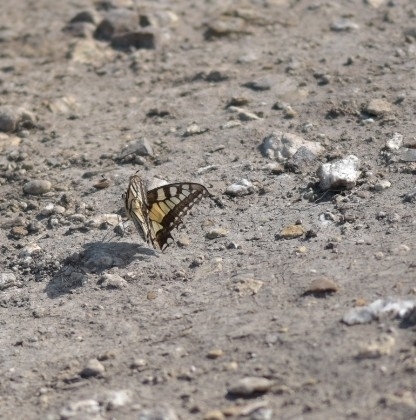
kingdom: Animalia
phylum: Arthropoda
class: Insecta
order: Lepidoptera
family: Papilionidae
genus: Papilio
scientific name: Papilio machaon
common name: Swallowtail
